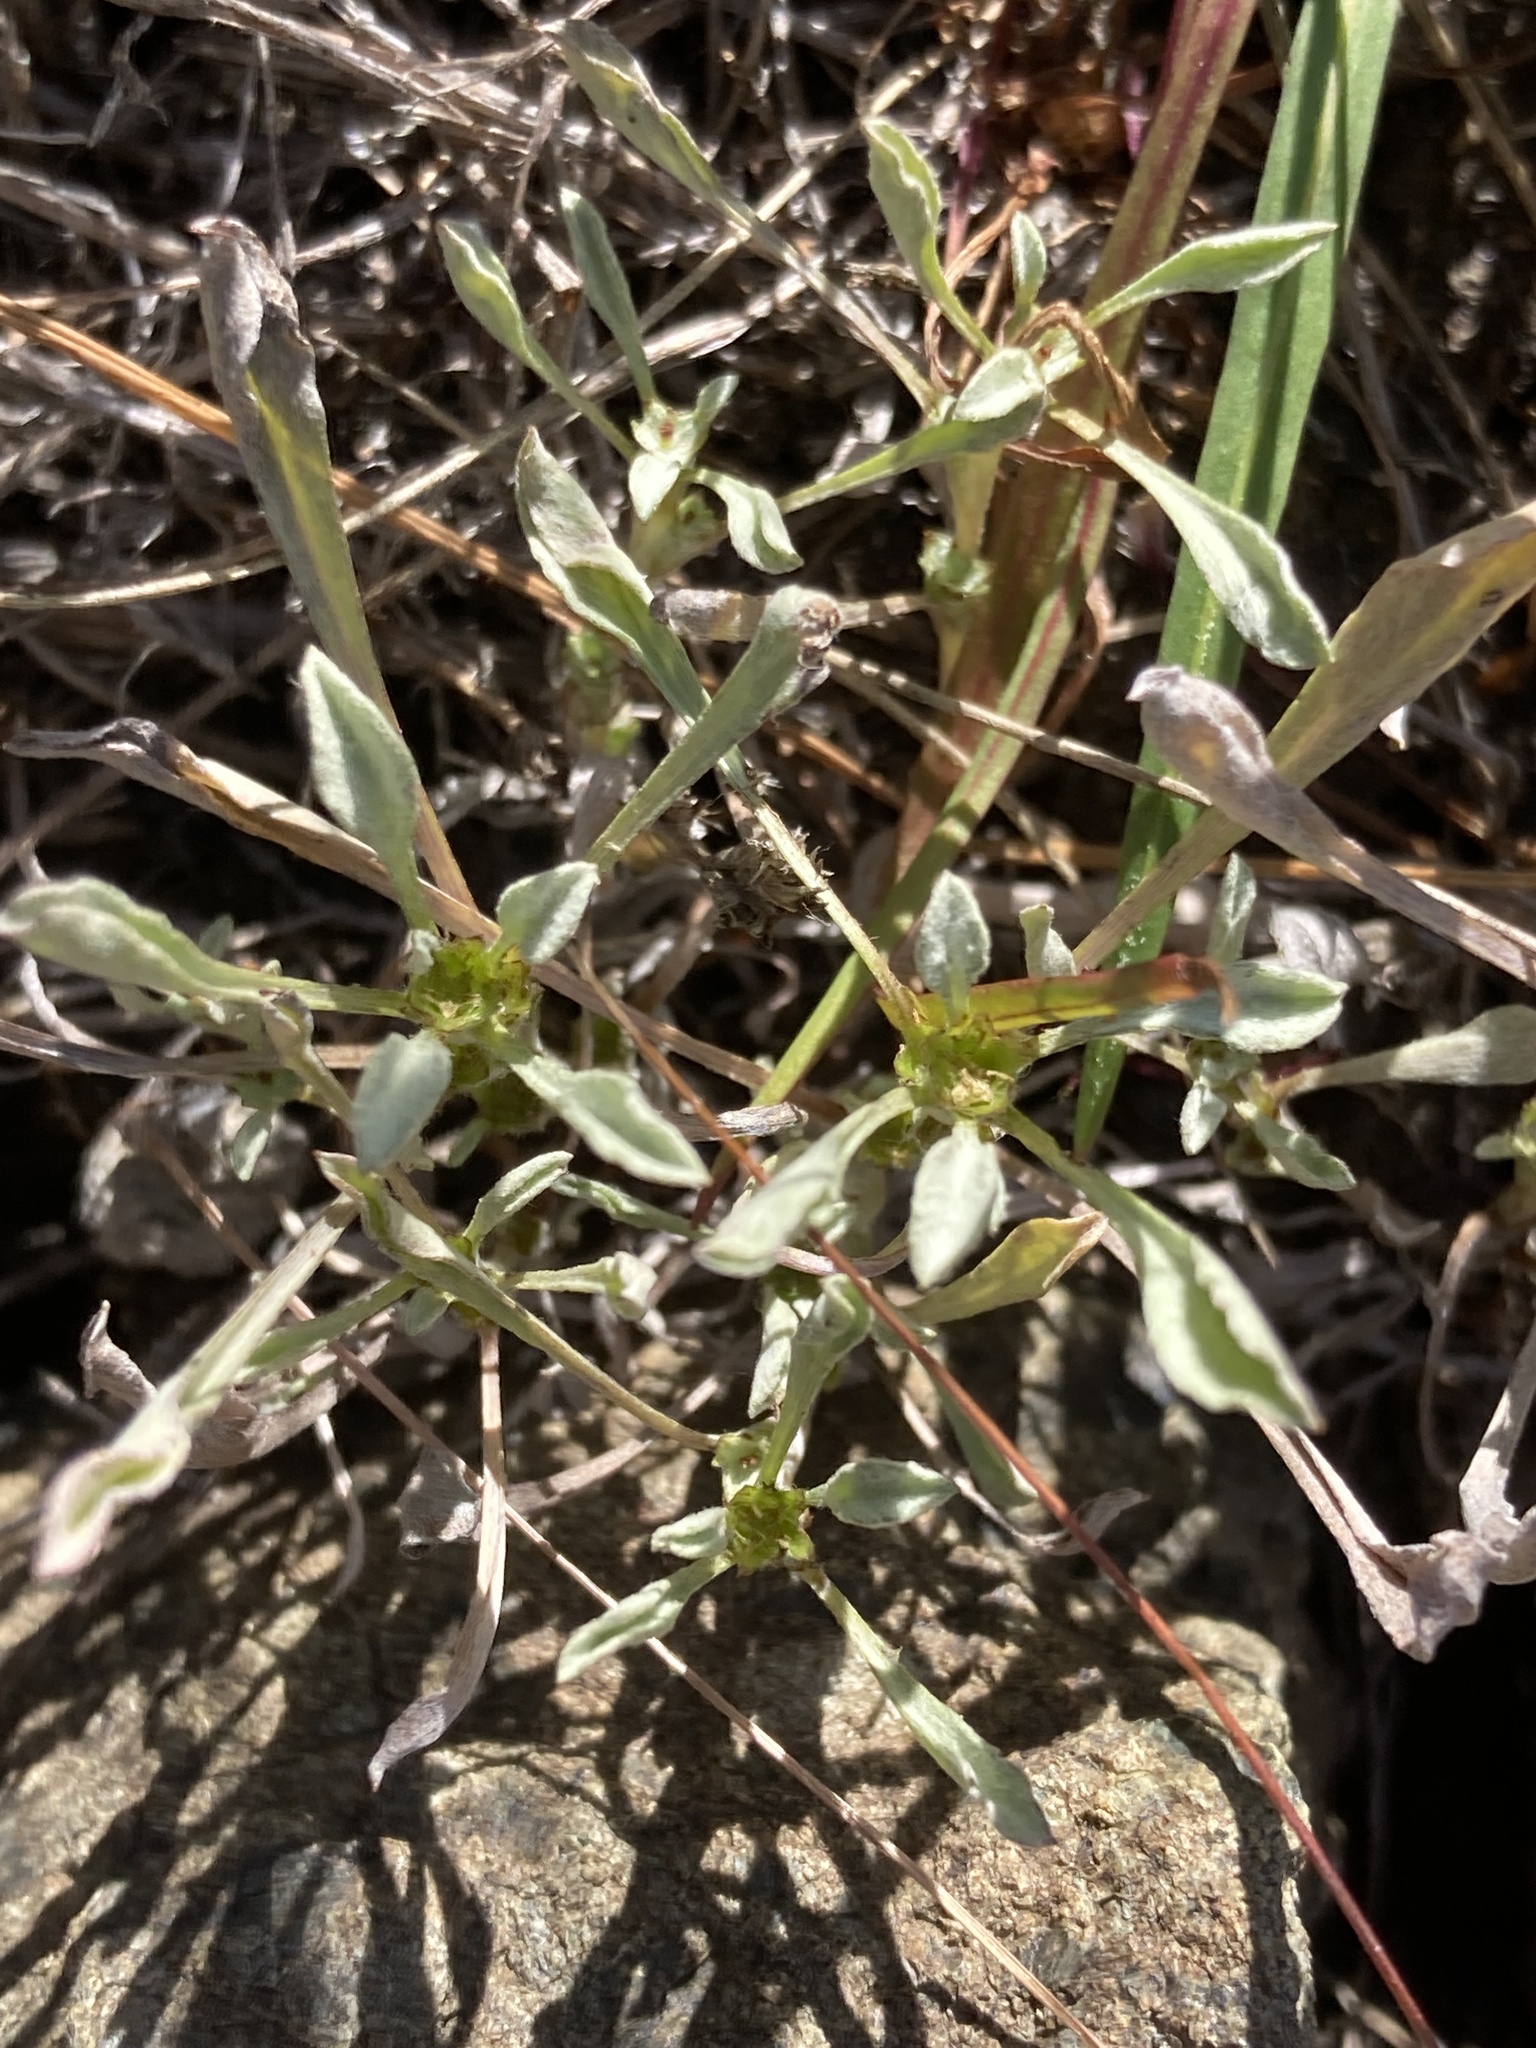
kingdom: Plantae
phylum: Tracheophyta
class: Magnoliopsida
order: Asterales
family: Asteraceae
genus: Hesperevax
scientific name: Hesperevax sparsiflora
